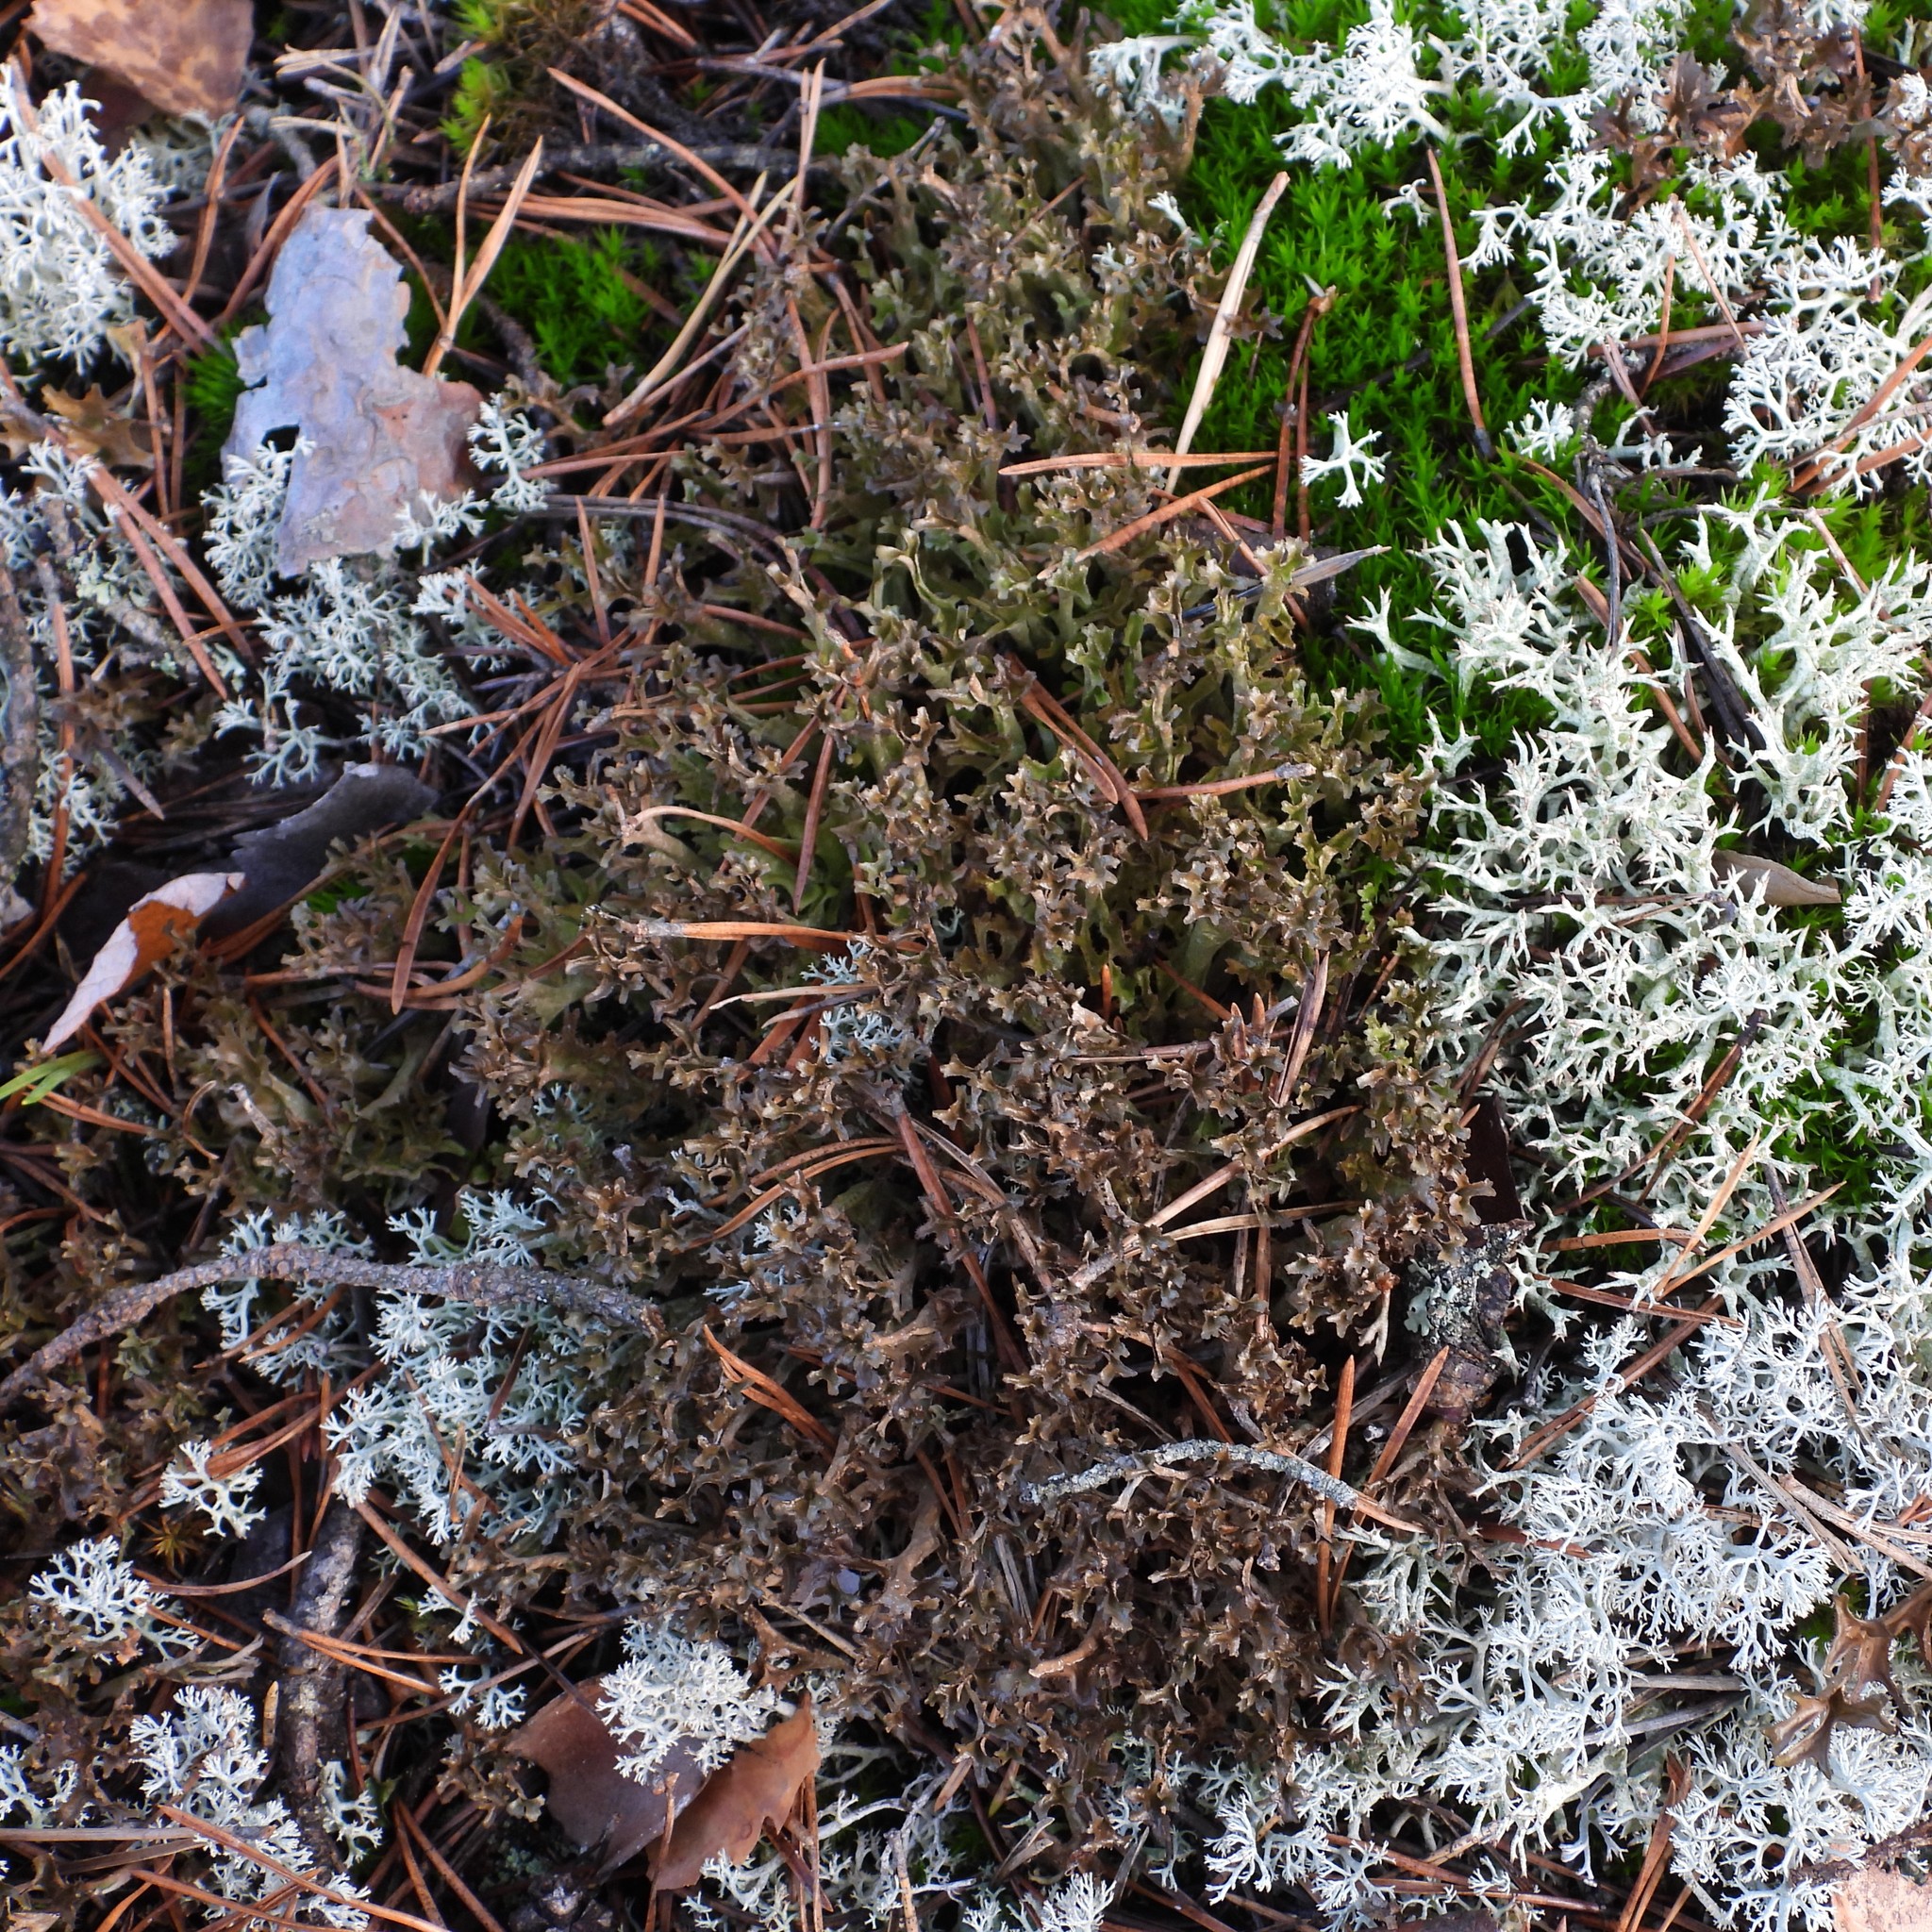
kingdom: Fungi
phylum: Ascomycota
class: Lecanoromycetes
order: Lecanorales
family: Parmeliaceae
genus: Cetraria
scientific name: Cetraria ericetorum
